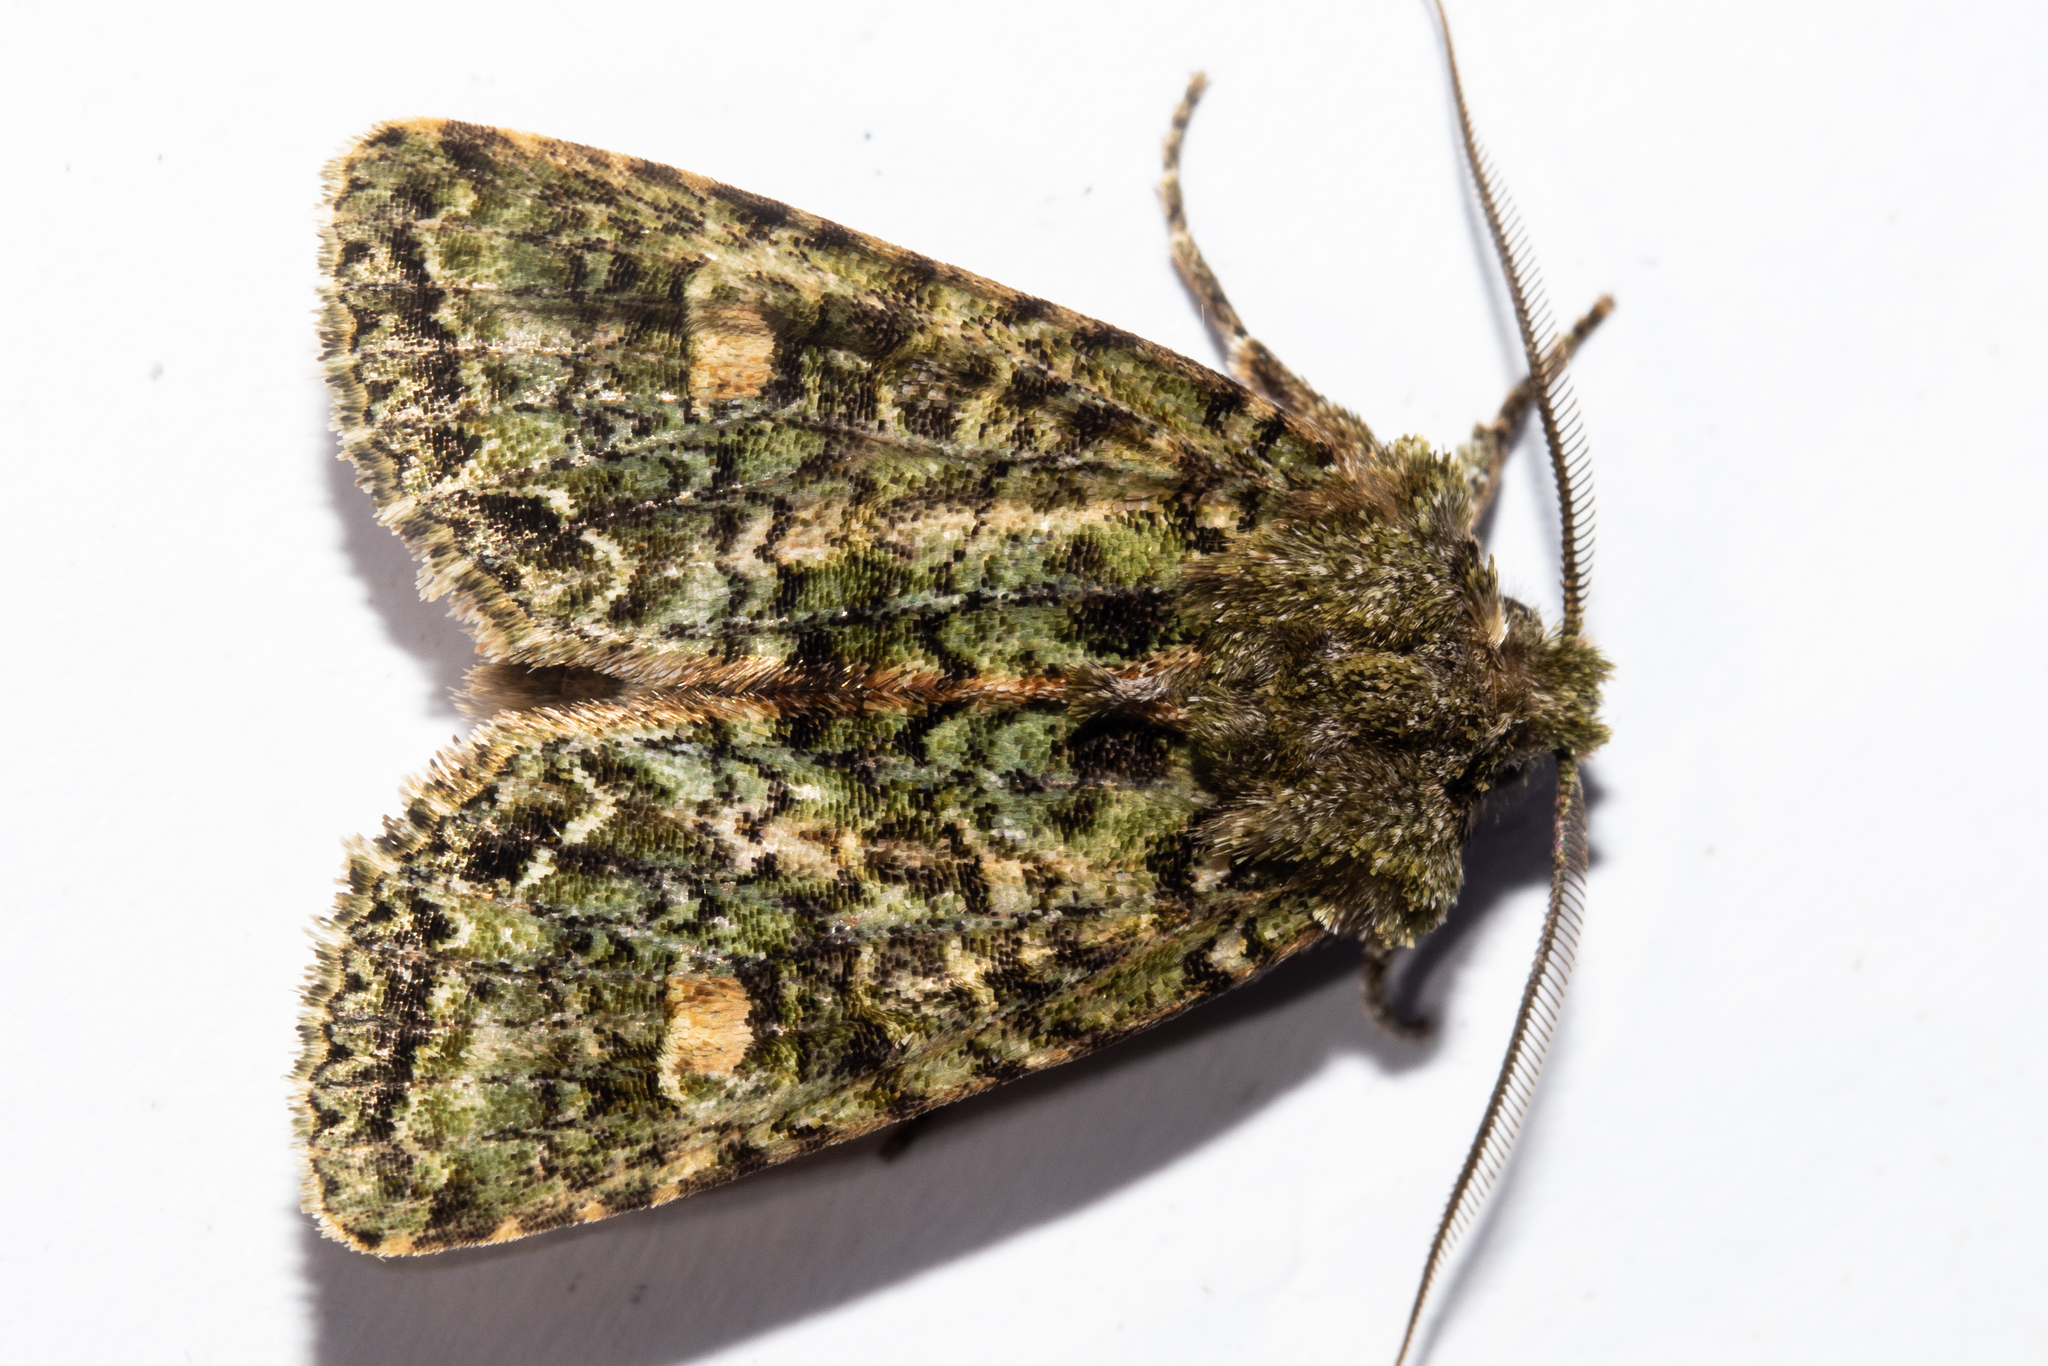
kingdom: Animalia
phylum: Arthropoda
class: Insecta
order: Lepidoptera
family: Noctuidae
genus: Ichneutica
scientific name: Ichneutica
